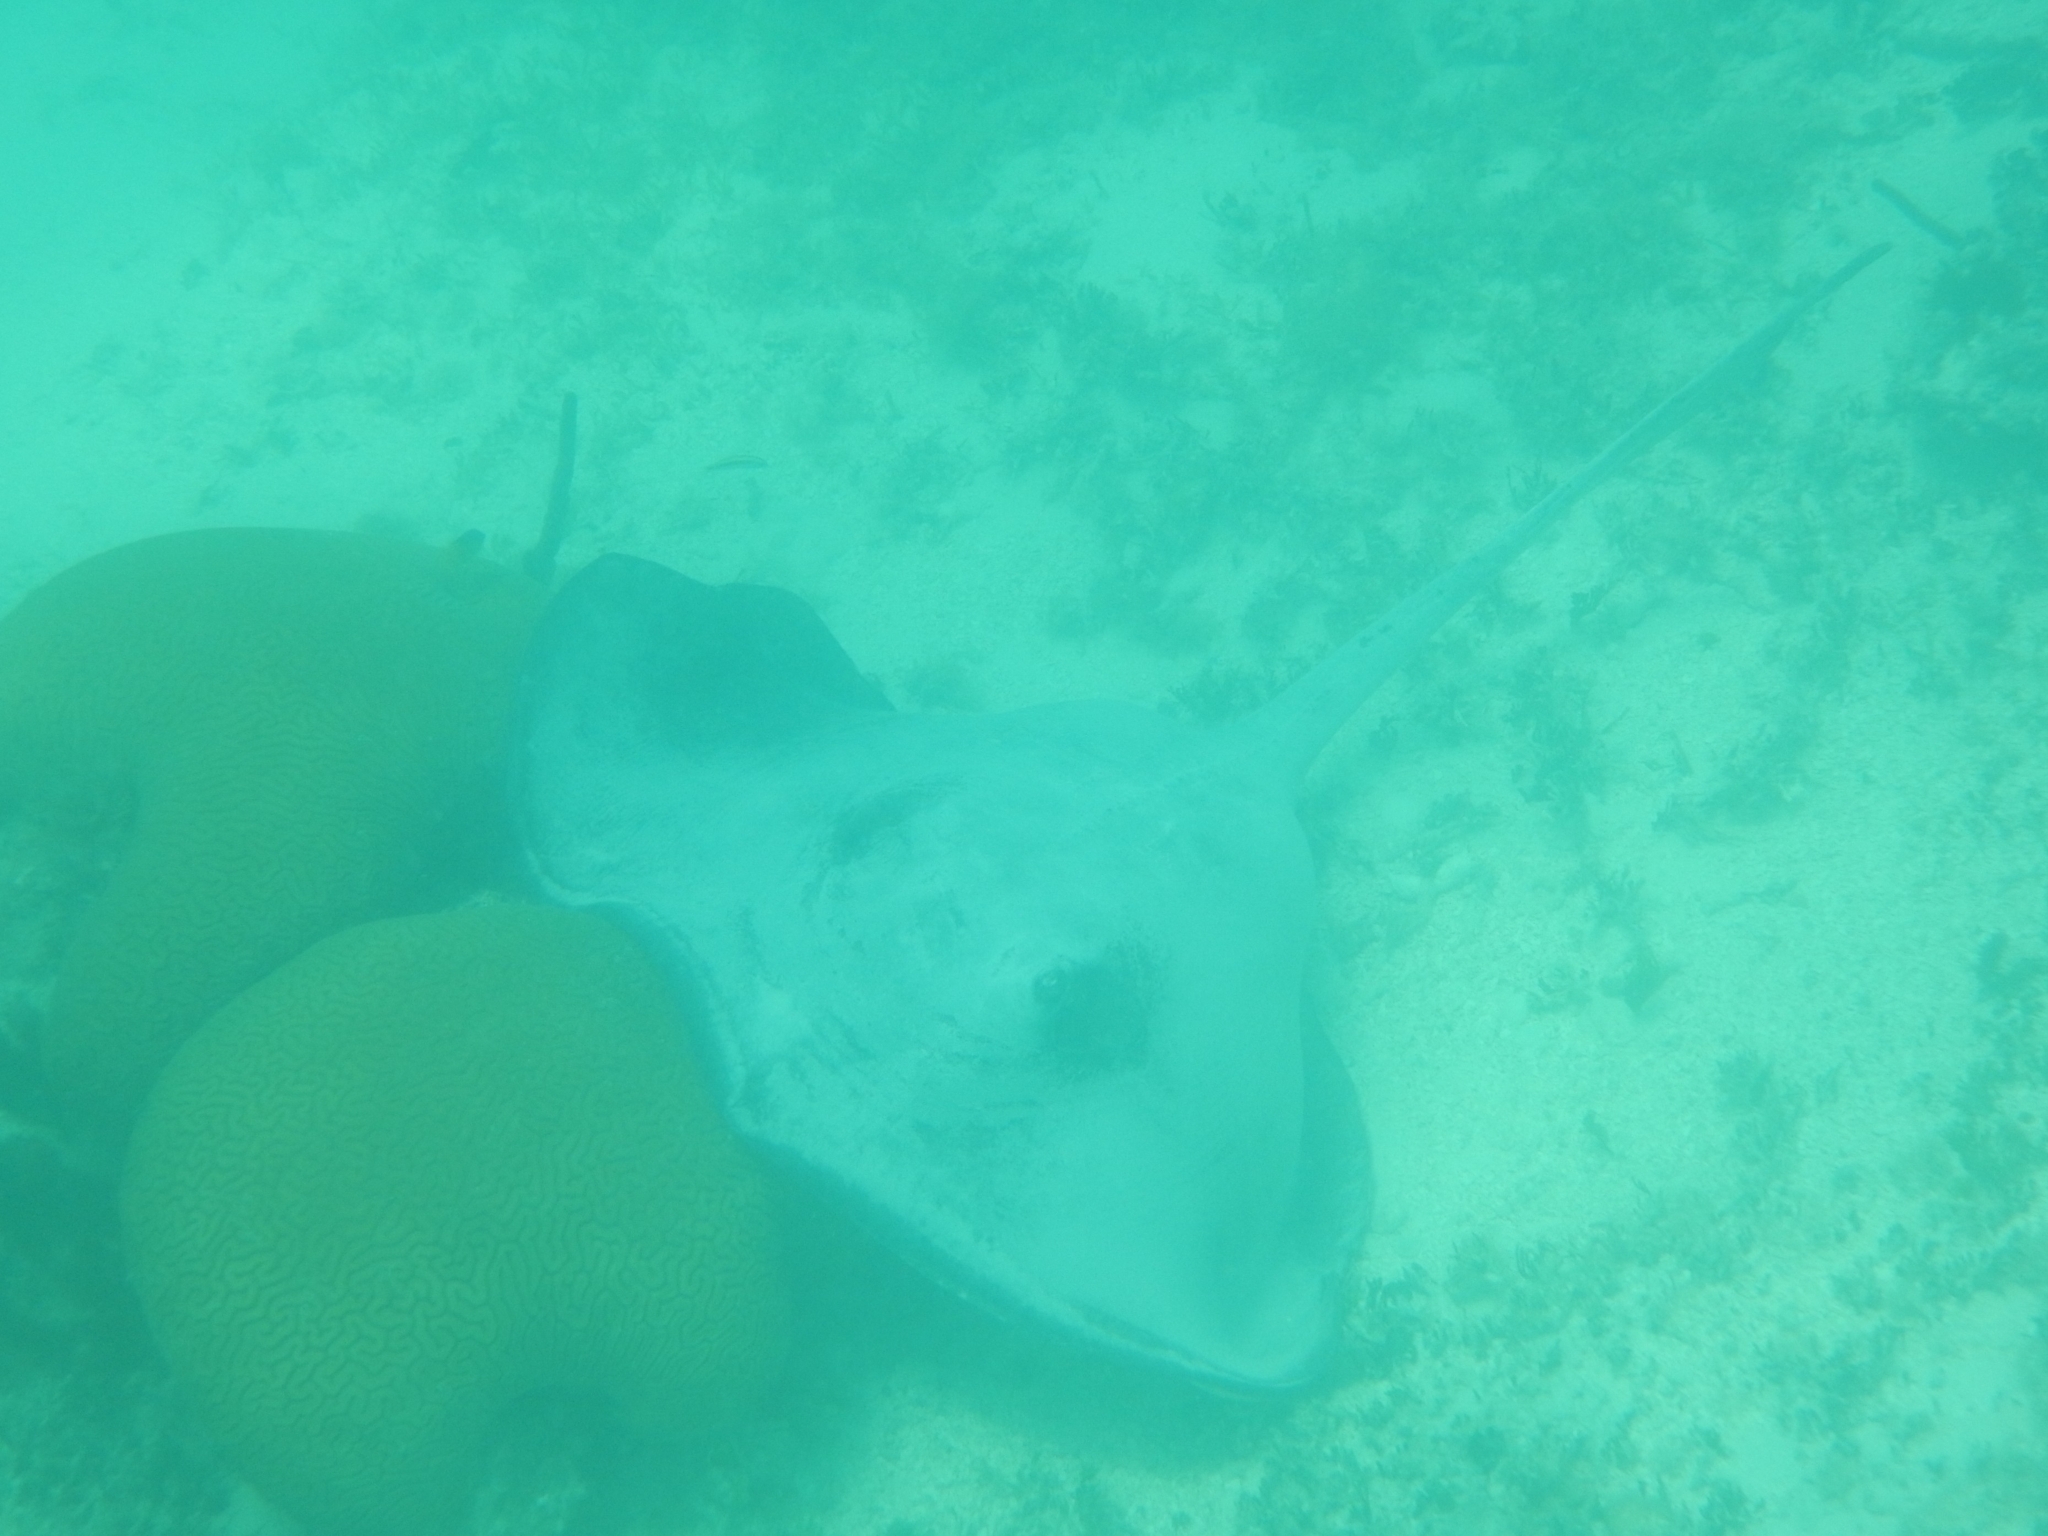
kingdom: Animalia
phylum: Chordata
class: Elasmobranchii
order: Myliobatiformes
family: Dasyatidae
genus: Hypanus
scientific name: Hypanus americanus
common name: Southern stingray
